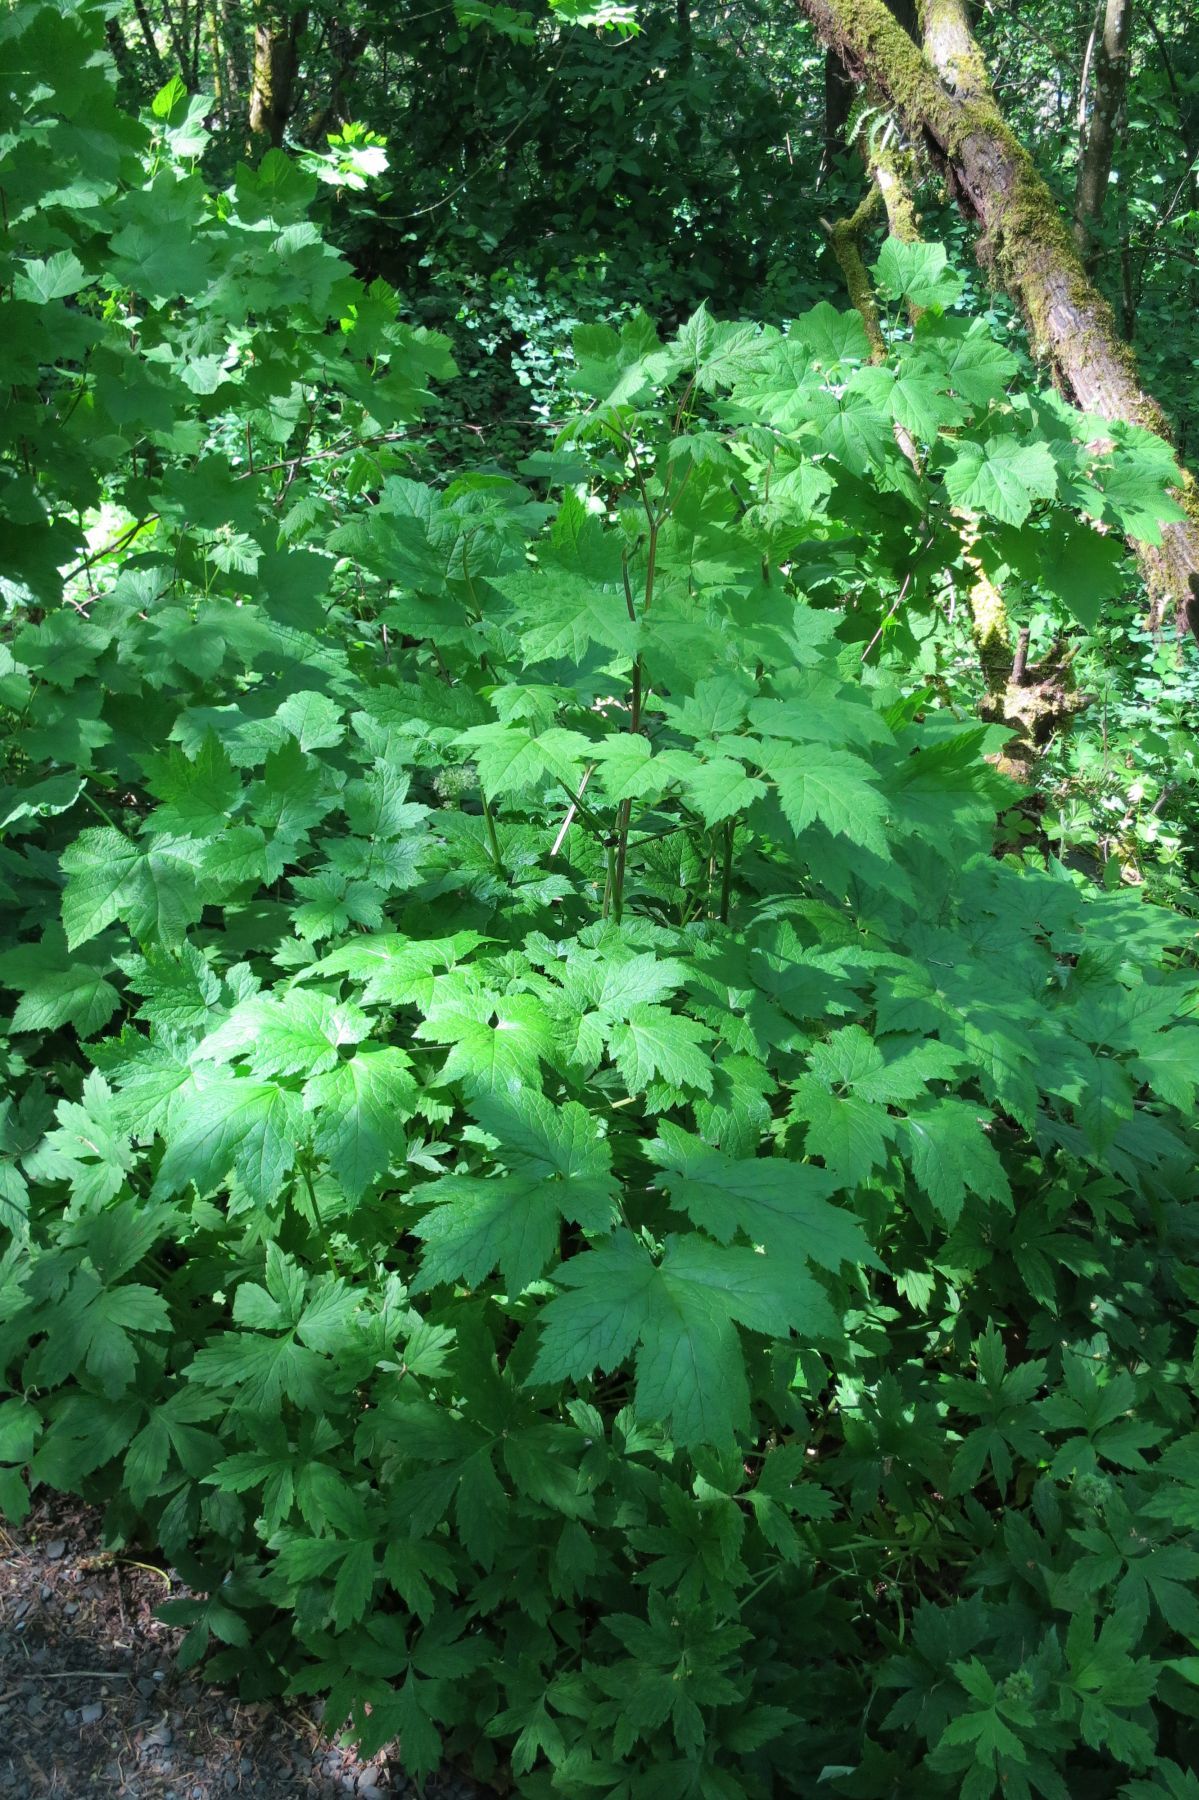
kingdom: Plantae
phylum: Tracheophyta
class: Magnoliopsida
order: Ranunculales
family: Ranunculaceae
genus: Actaea
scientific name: Actaea elata
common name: Tall bugbane
